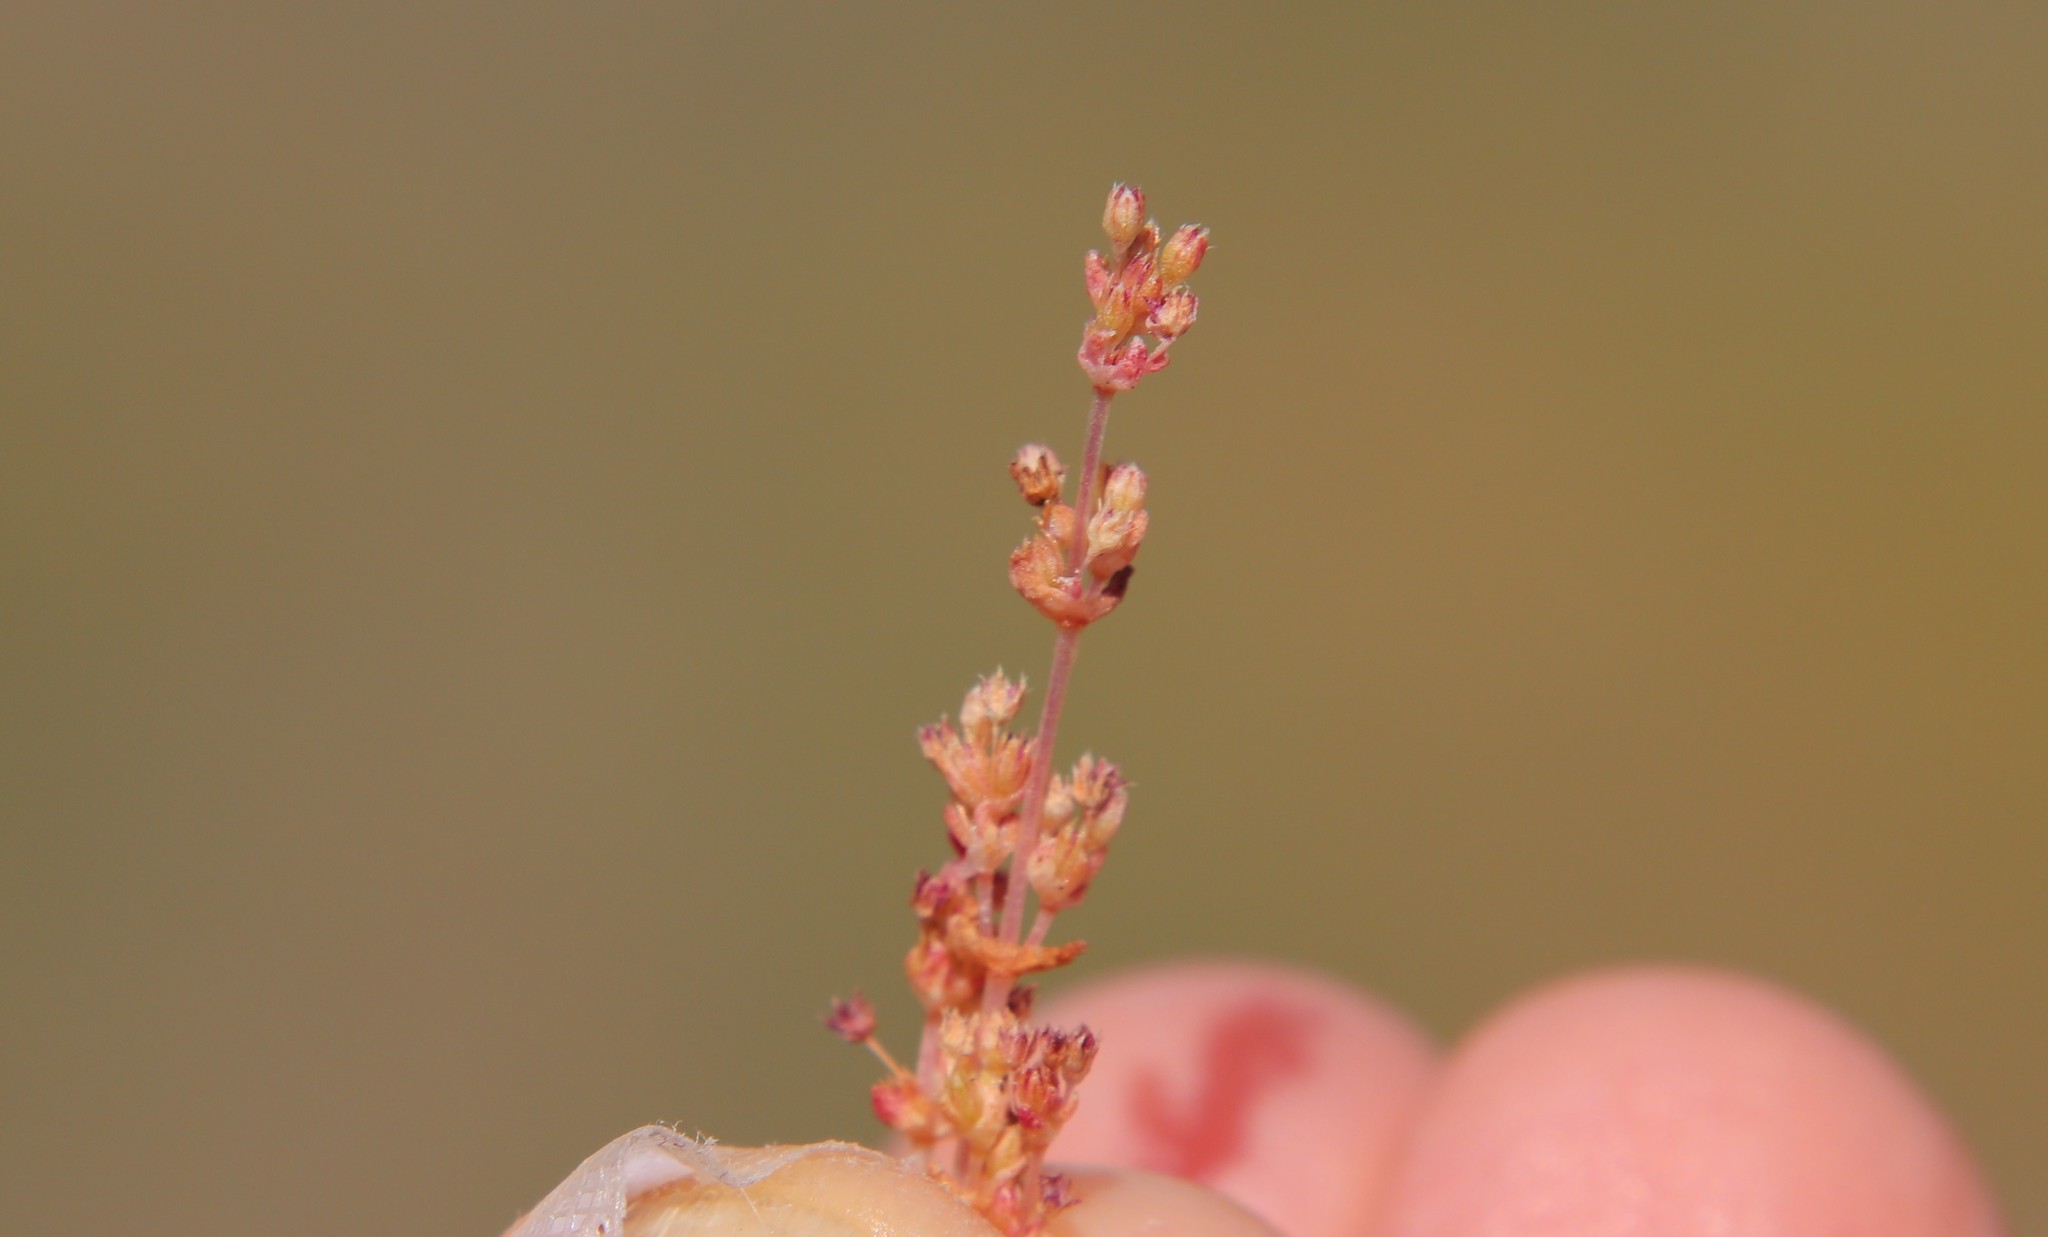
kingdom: Plantae
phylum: Tracheophyta
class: Magnoliopsida
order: Saxifragales
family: Crassulaceae
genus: Crassula
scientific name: Crassula connata
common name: Erect pygmyweed
